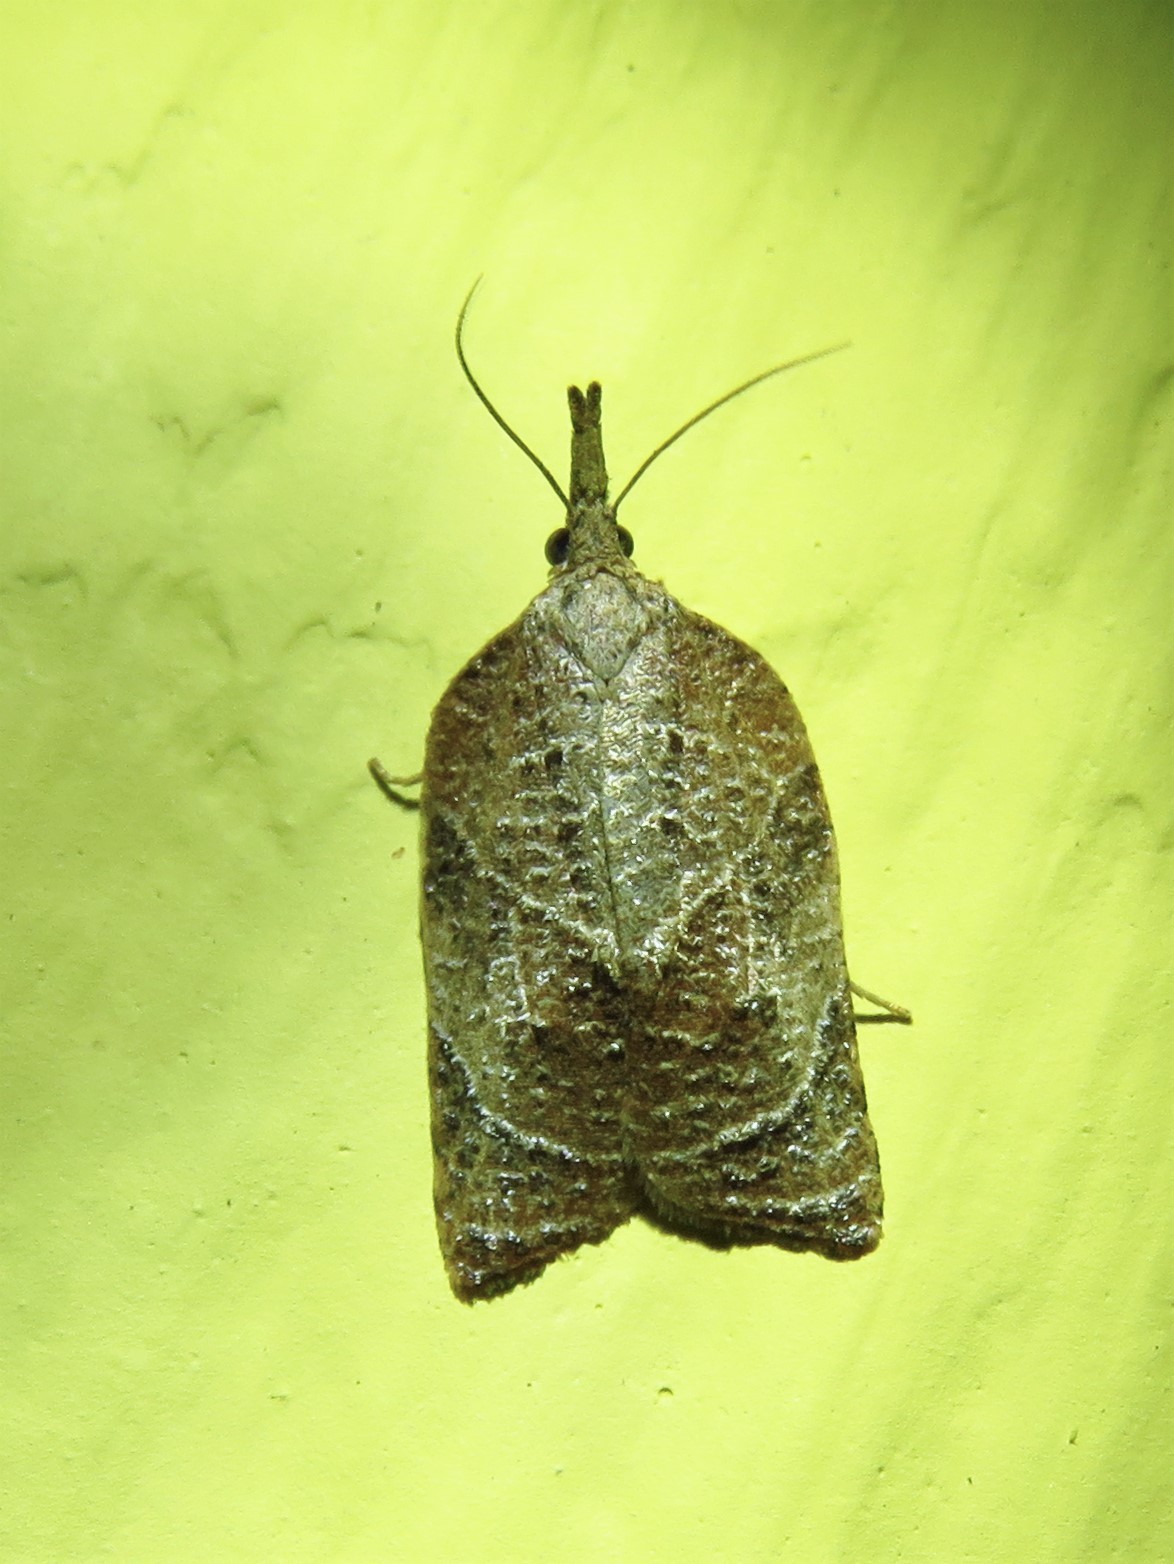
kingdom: Animalia
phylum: Arthropoda
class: Insecta
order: Lepidoptera
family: Tortricidae
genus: Platynota
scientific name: Platynota rostrana
